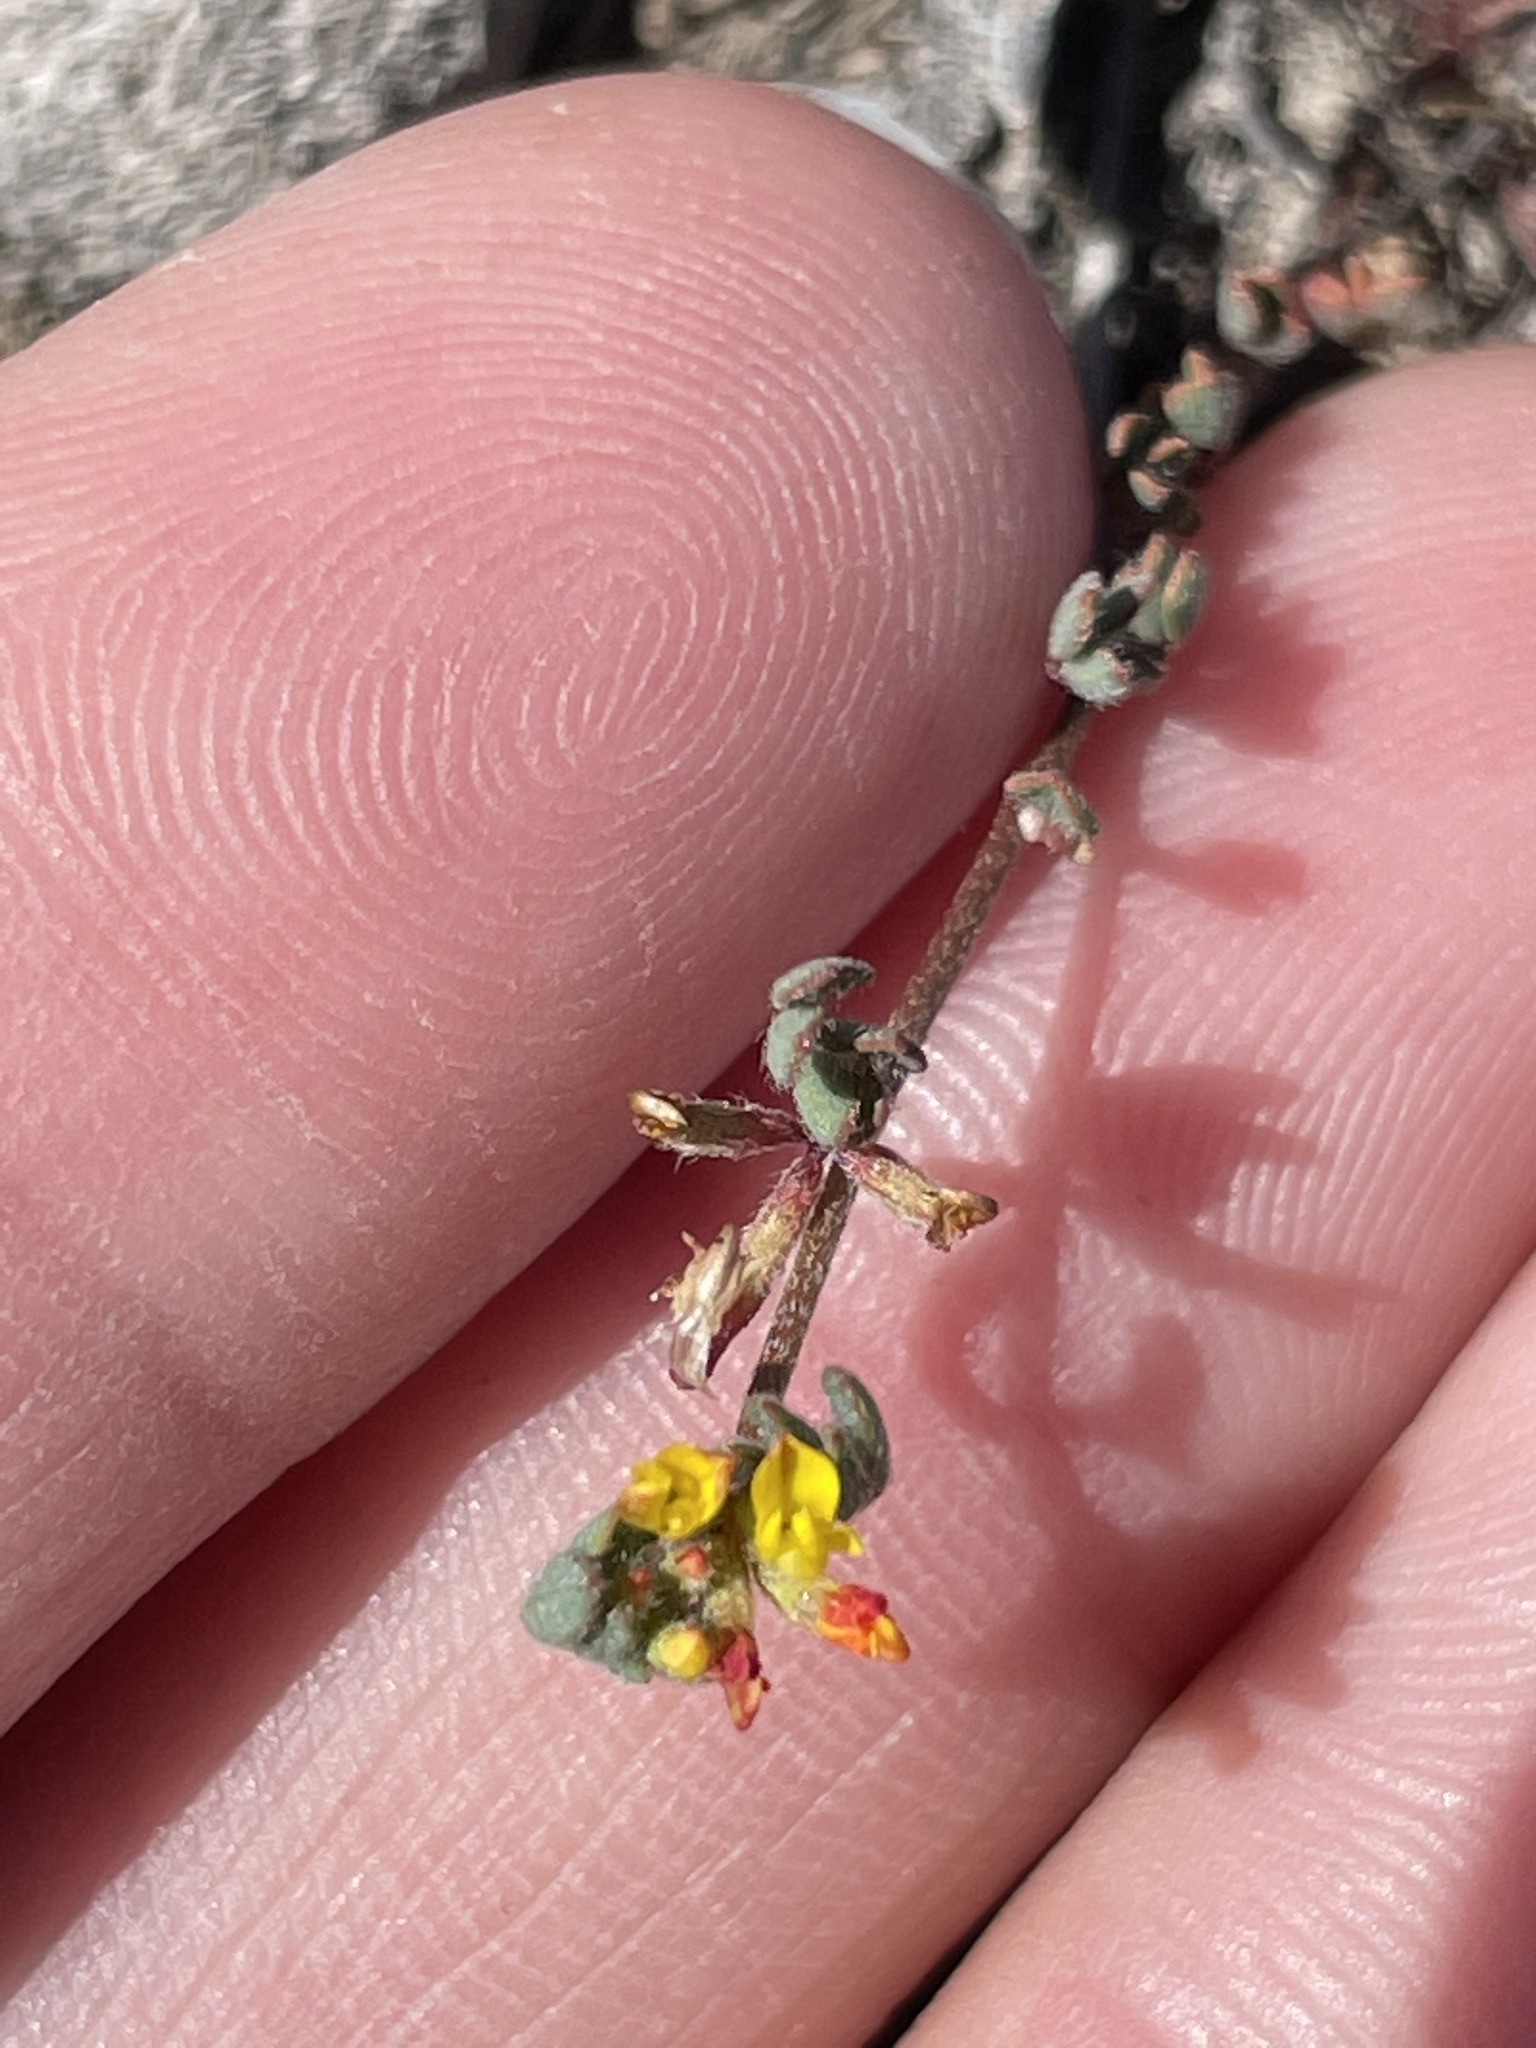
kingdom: Plantae
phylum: Tracheophyta
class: Magnoliopsida
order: Fabales
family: Fabaceae
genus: Acmispon
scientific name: Acmispon micranthus
